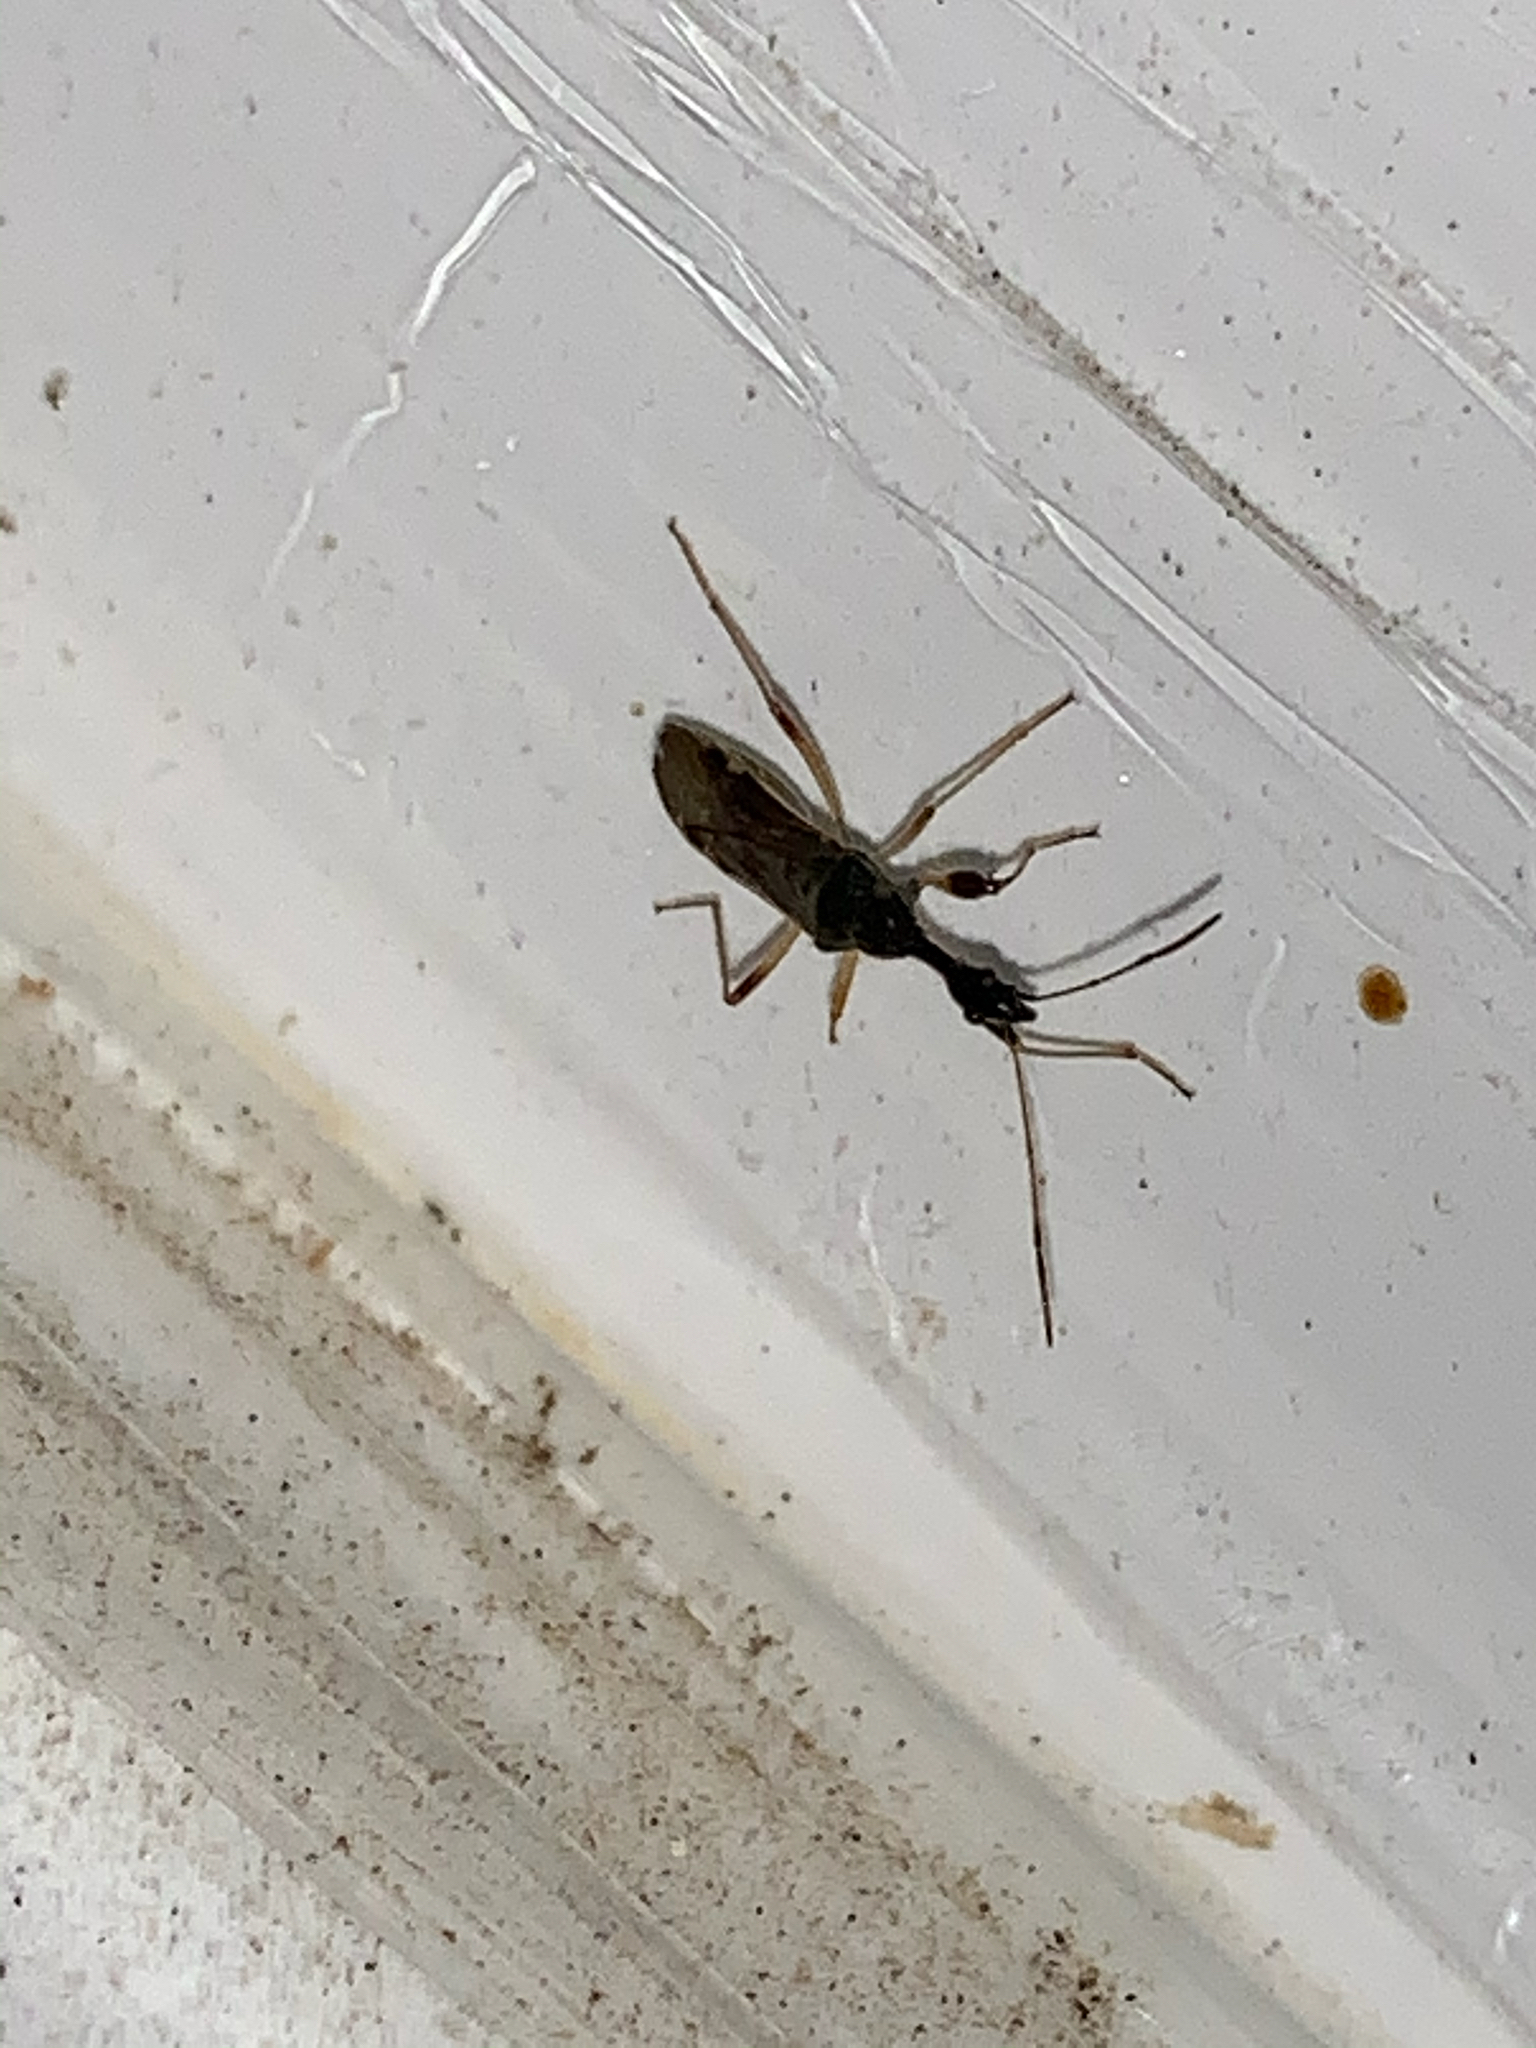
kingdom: Animalia
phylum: Arthropoda
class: Insecta
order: Hemiptera
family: Rhyparochromidae
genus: Myodocha
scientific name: Myodocha serripes
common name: Long-necked seed bug
